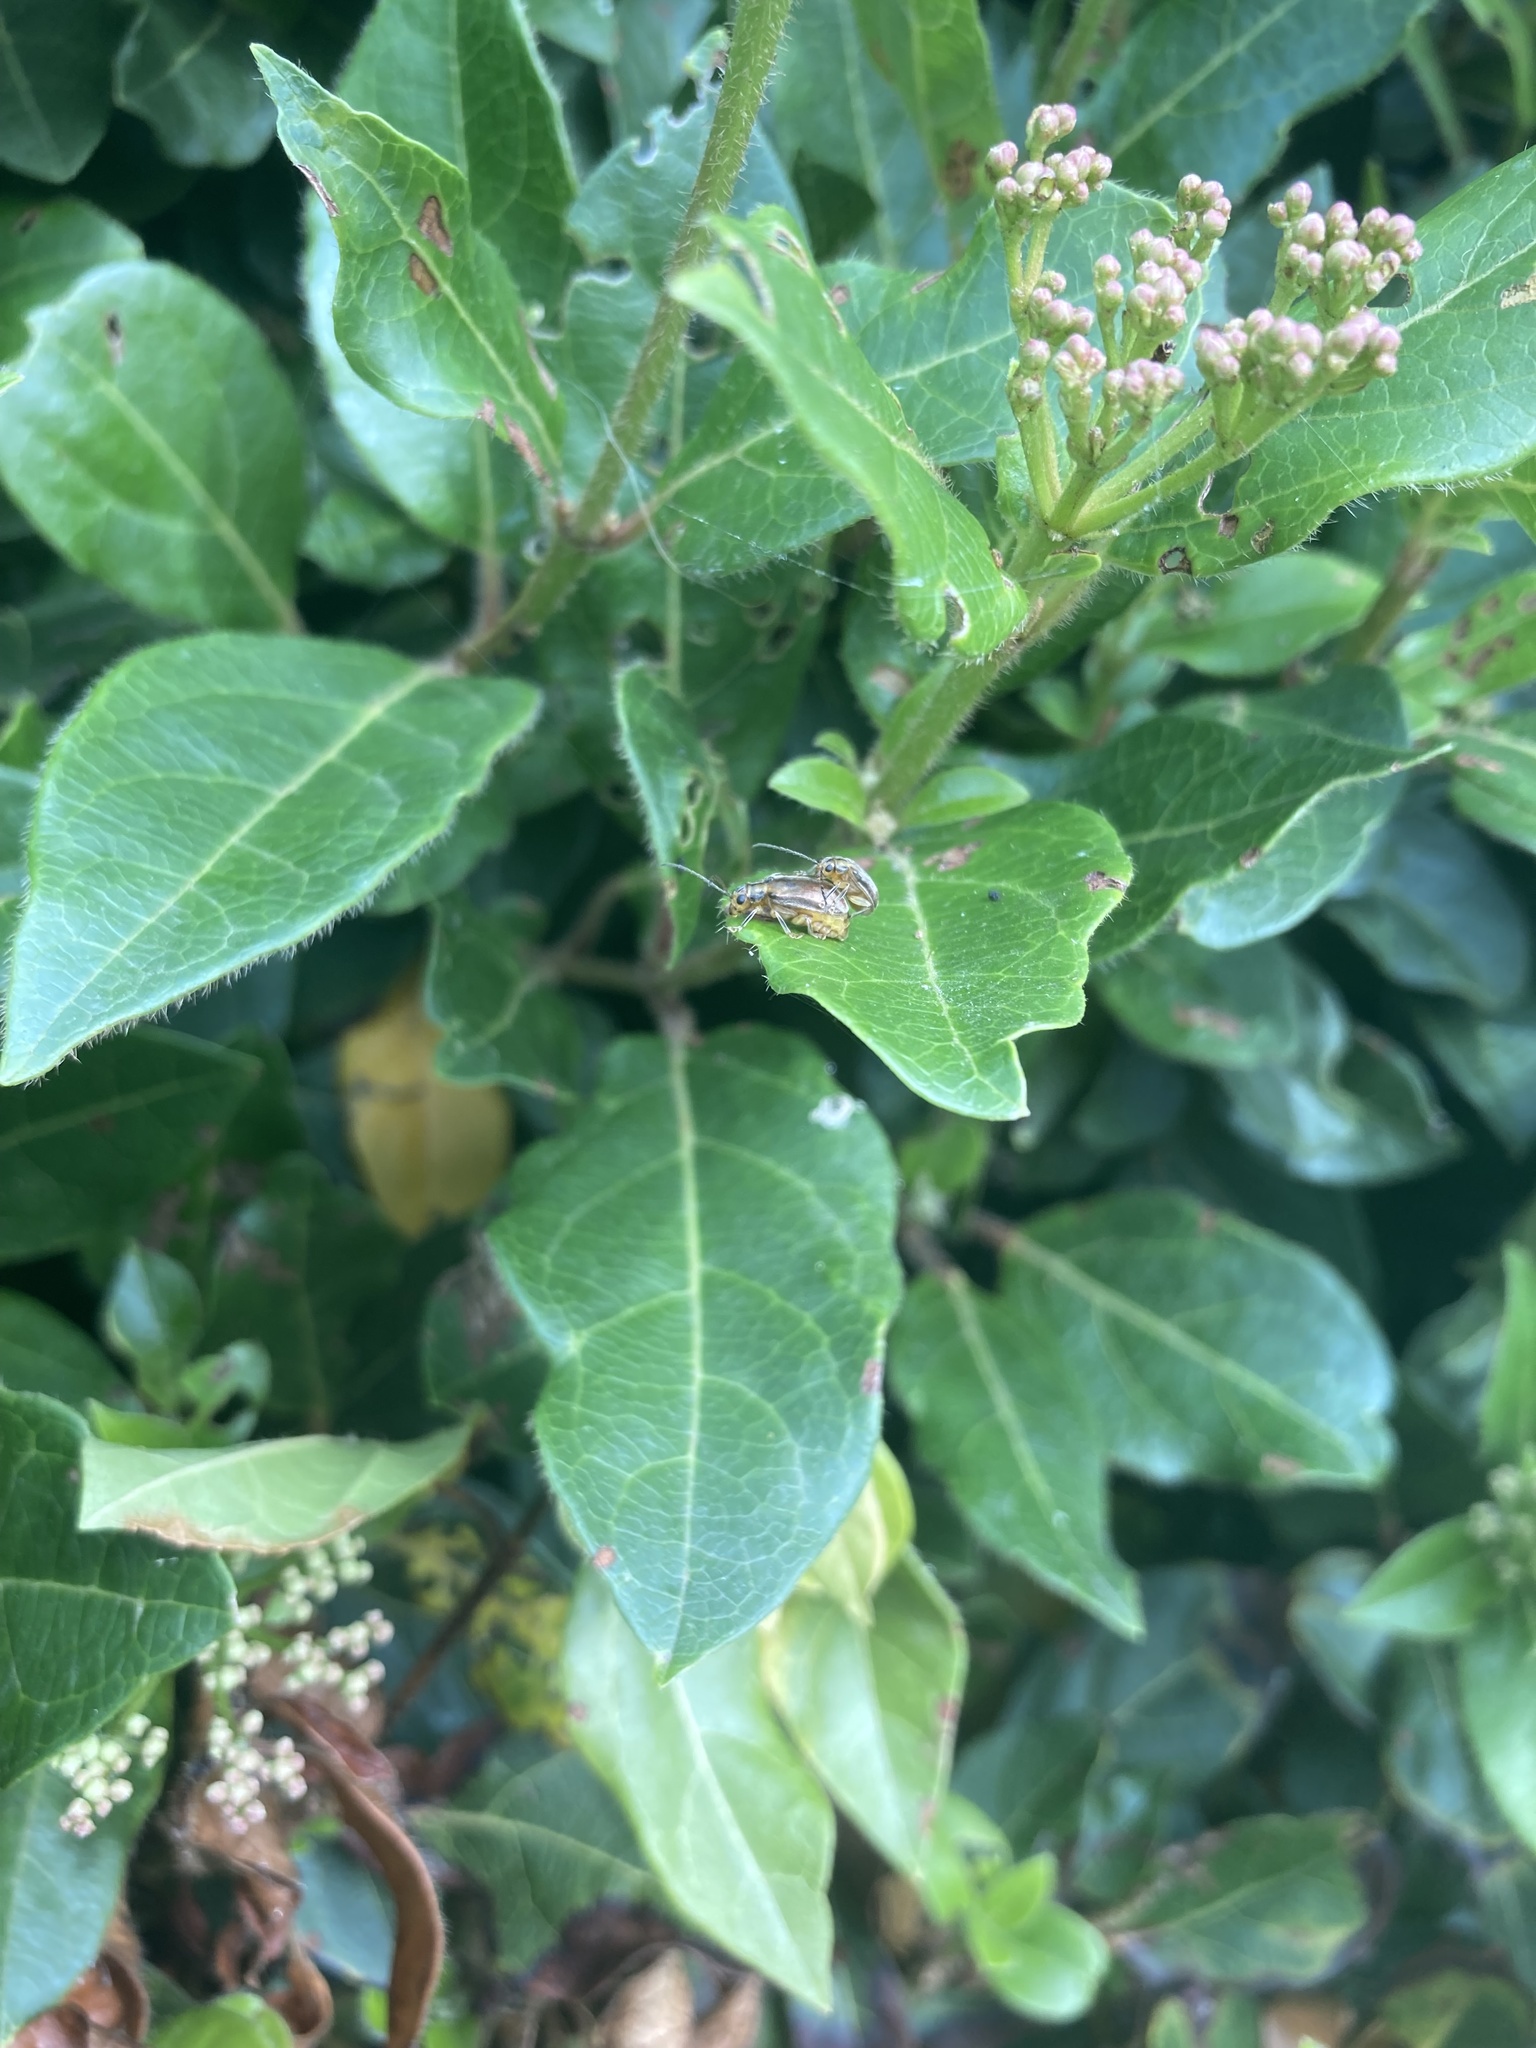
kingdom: Animalia
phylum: Arthropoda
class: Insecta
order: Coleoptera
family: Chrysomelidae
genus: Pyrrhalta
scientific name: Pyrrhalta viburni
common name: Guelder-rose leaf beetle
